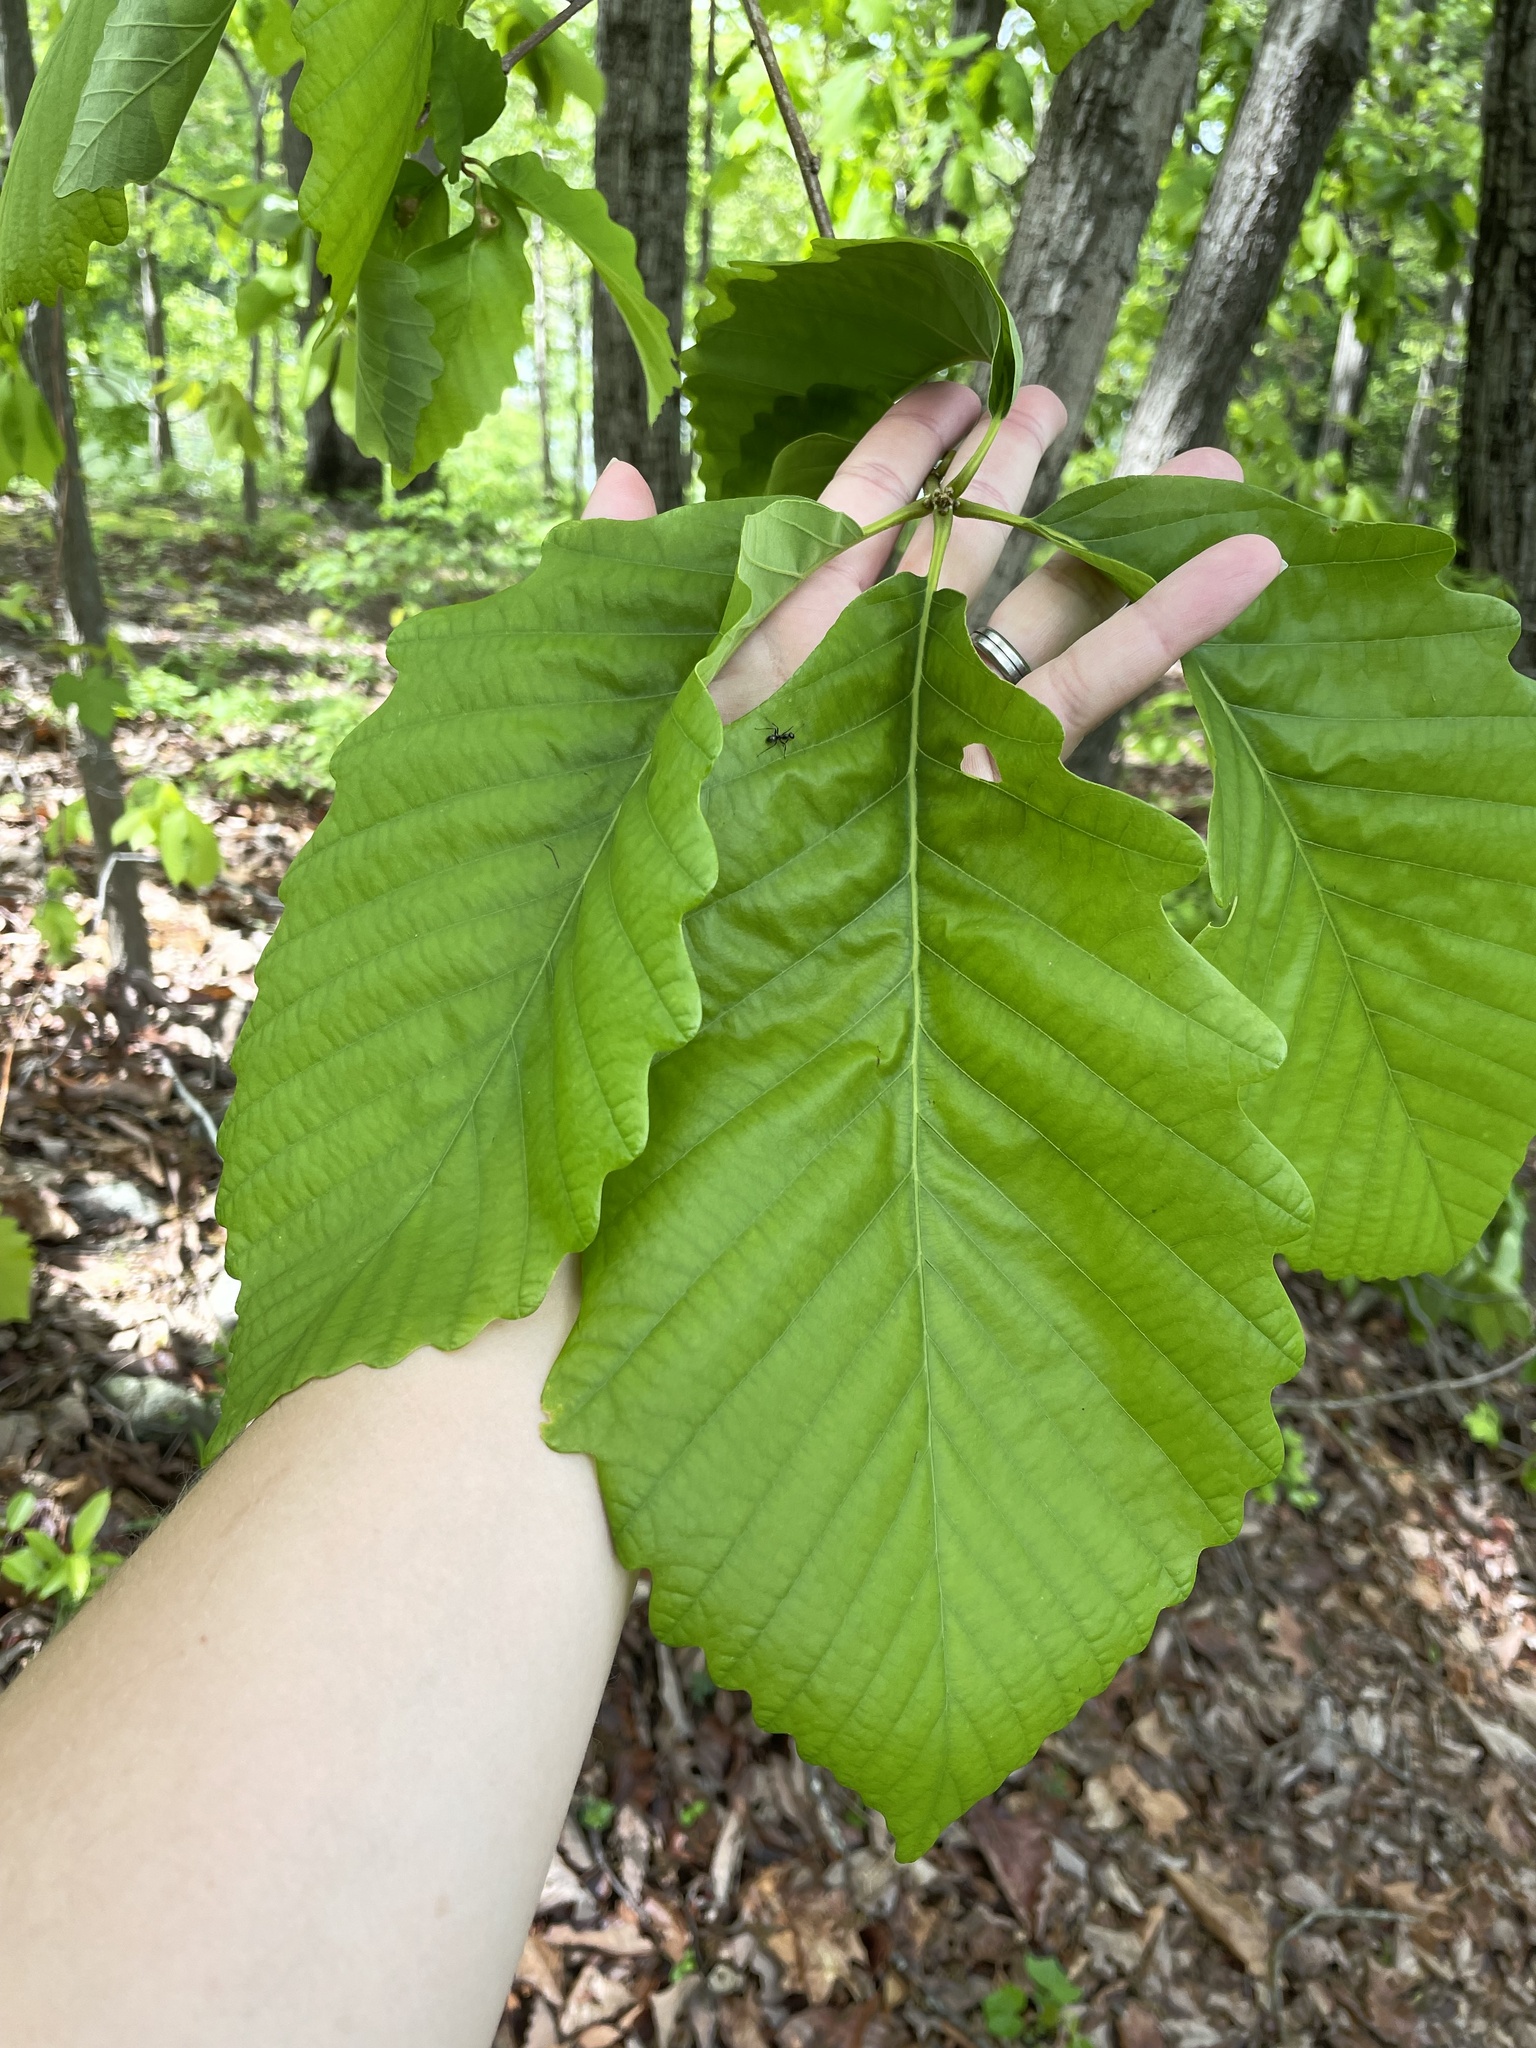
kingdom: Plantae
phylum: Tracheophyta
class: Magnoliopsida
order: Fagales
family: Fagaceae
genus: Quercus
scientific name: Quercus montana
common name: Chestnut oak
